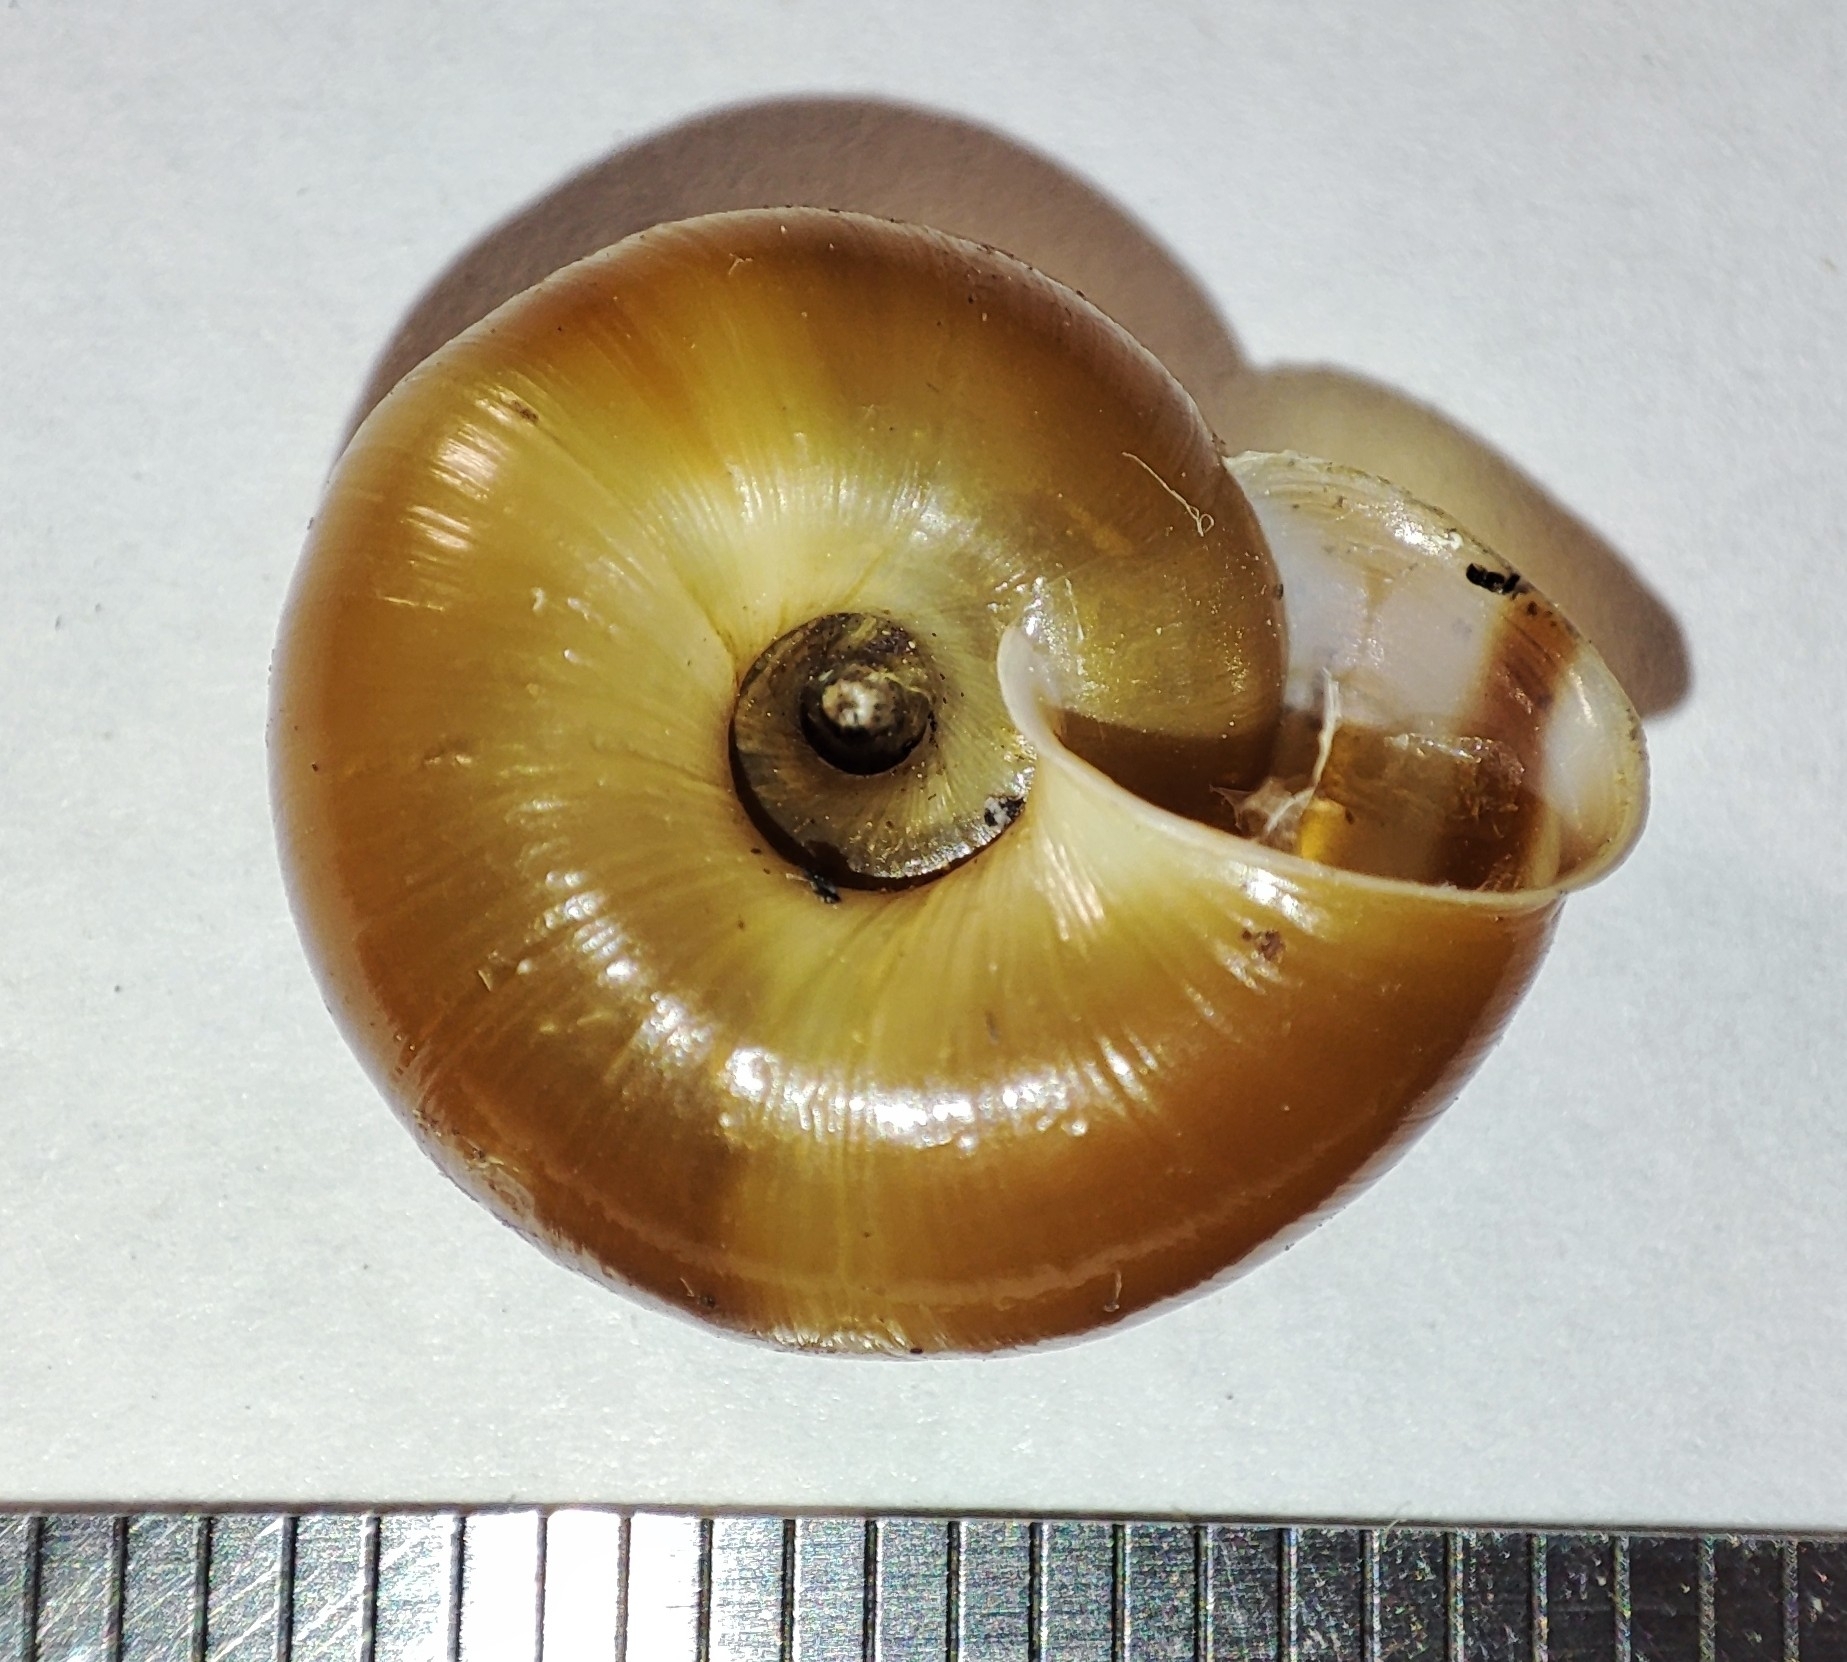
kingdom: Animalia
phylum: Mollusca
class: Gastropoda
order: Stylommatophora
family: Helicidae
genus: Faustina
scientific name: Faustina faustina
